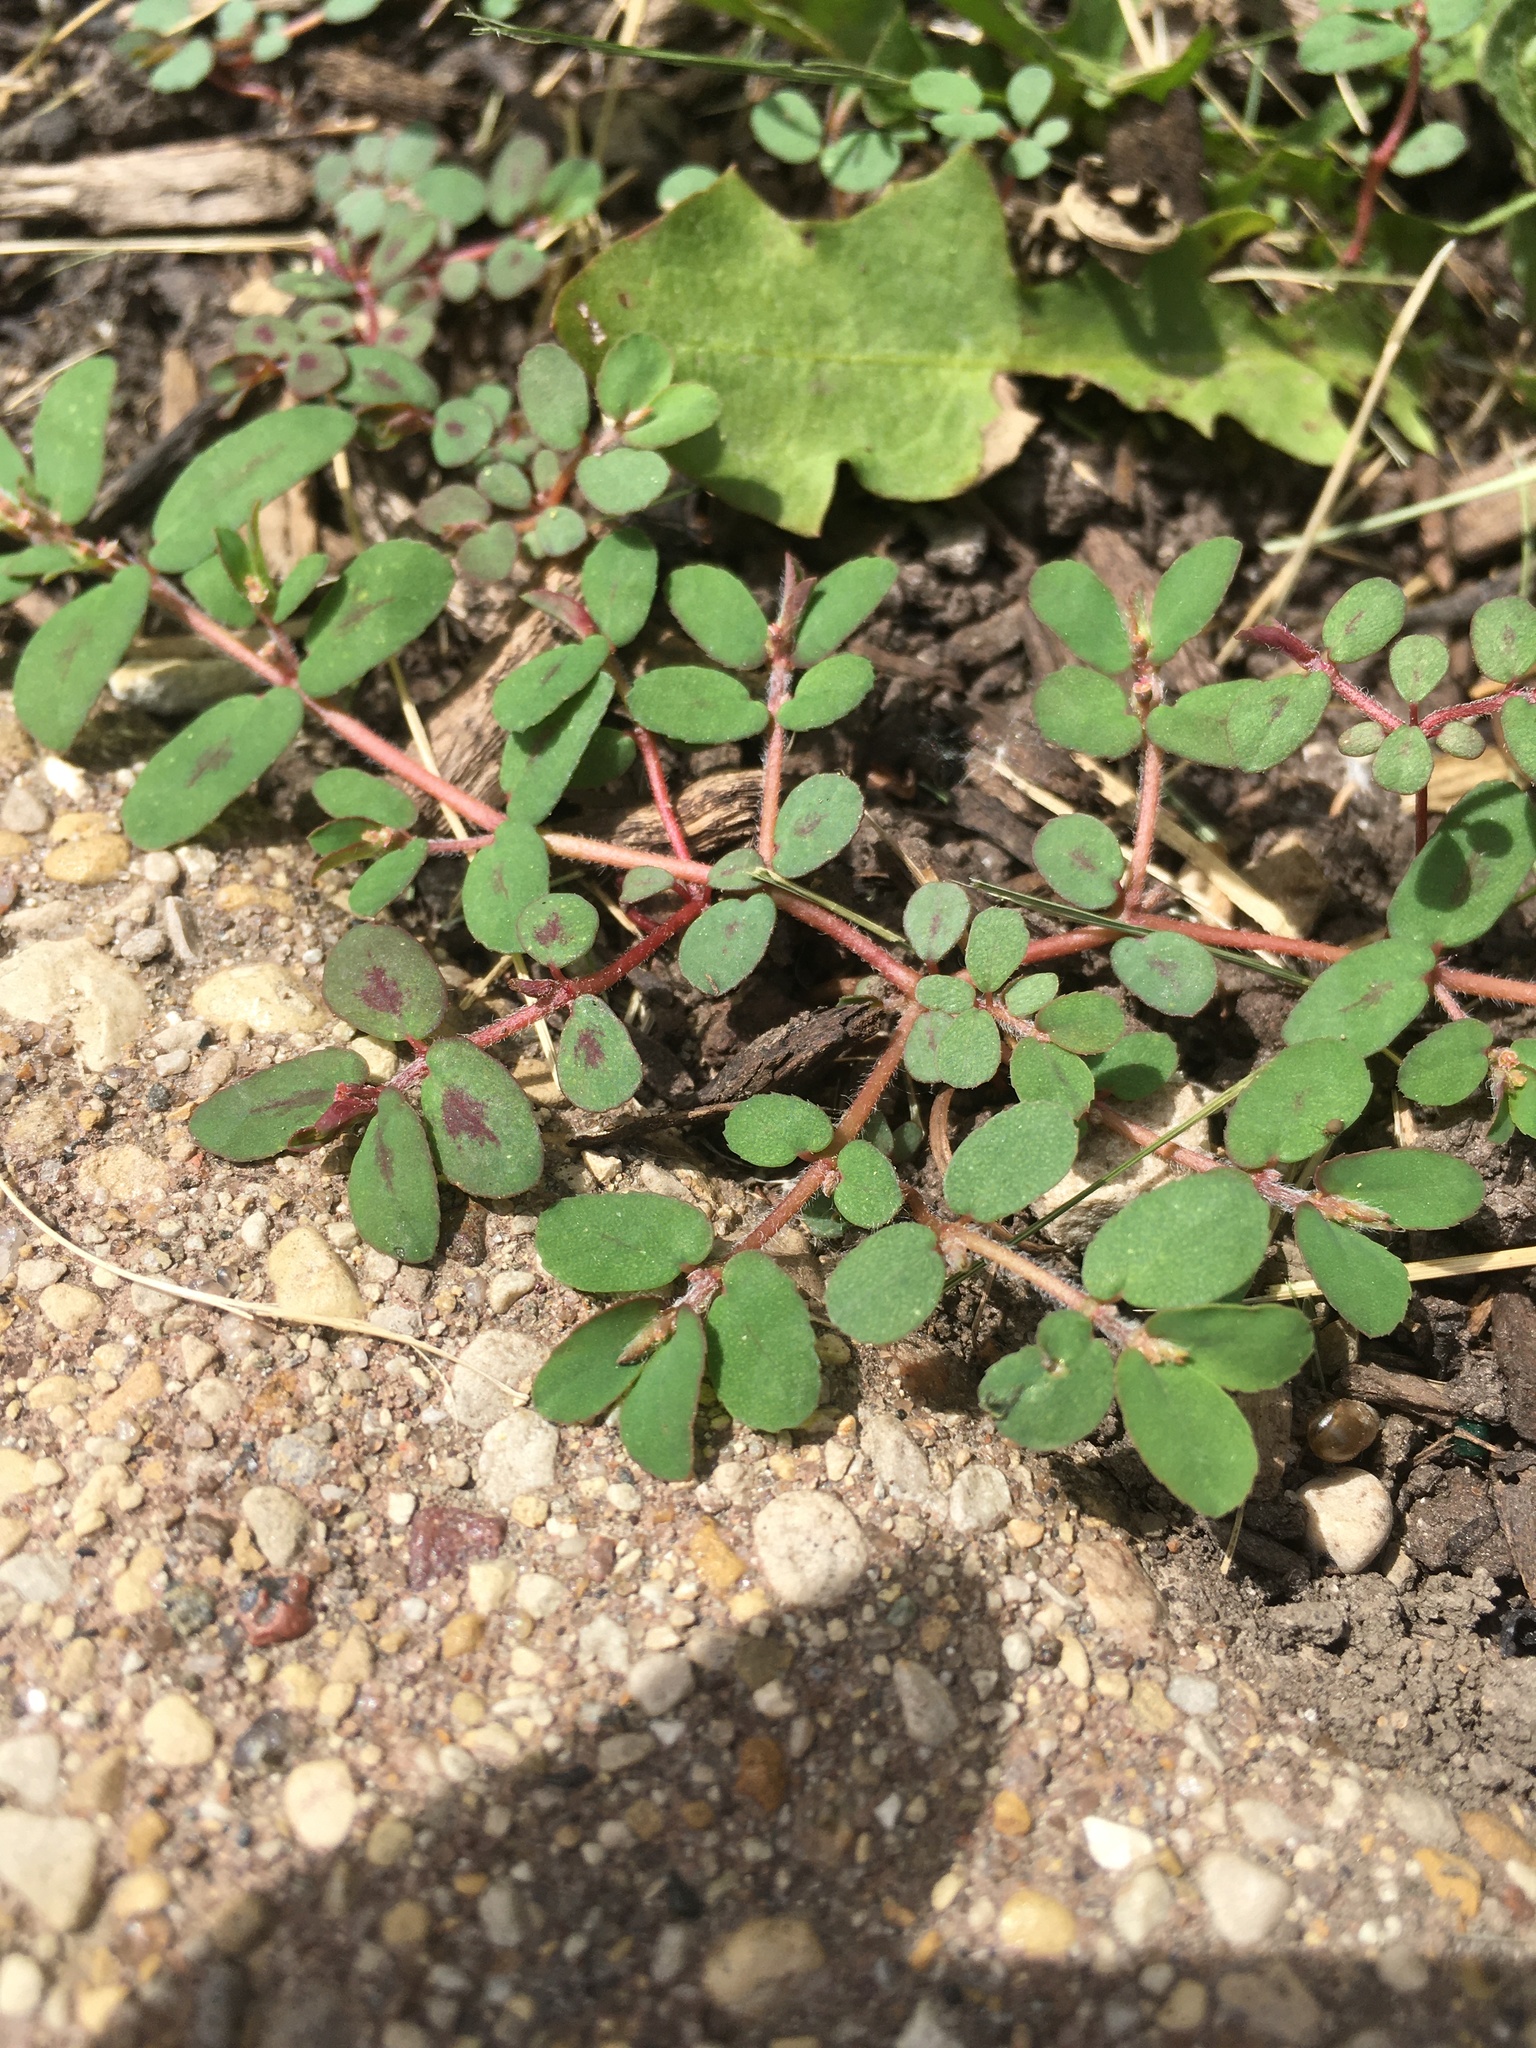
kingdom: Plantae
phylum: Tracheophyta
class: Magnoliopsida
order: Malpighiales
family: Euphorbiaceae
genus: Euphorbia
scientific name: Euphorbia maculata
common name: Spotted spurge
